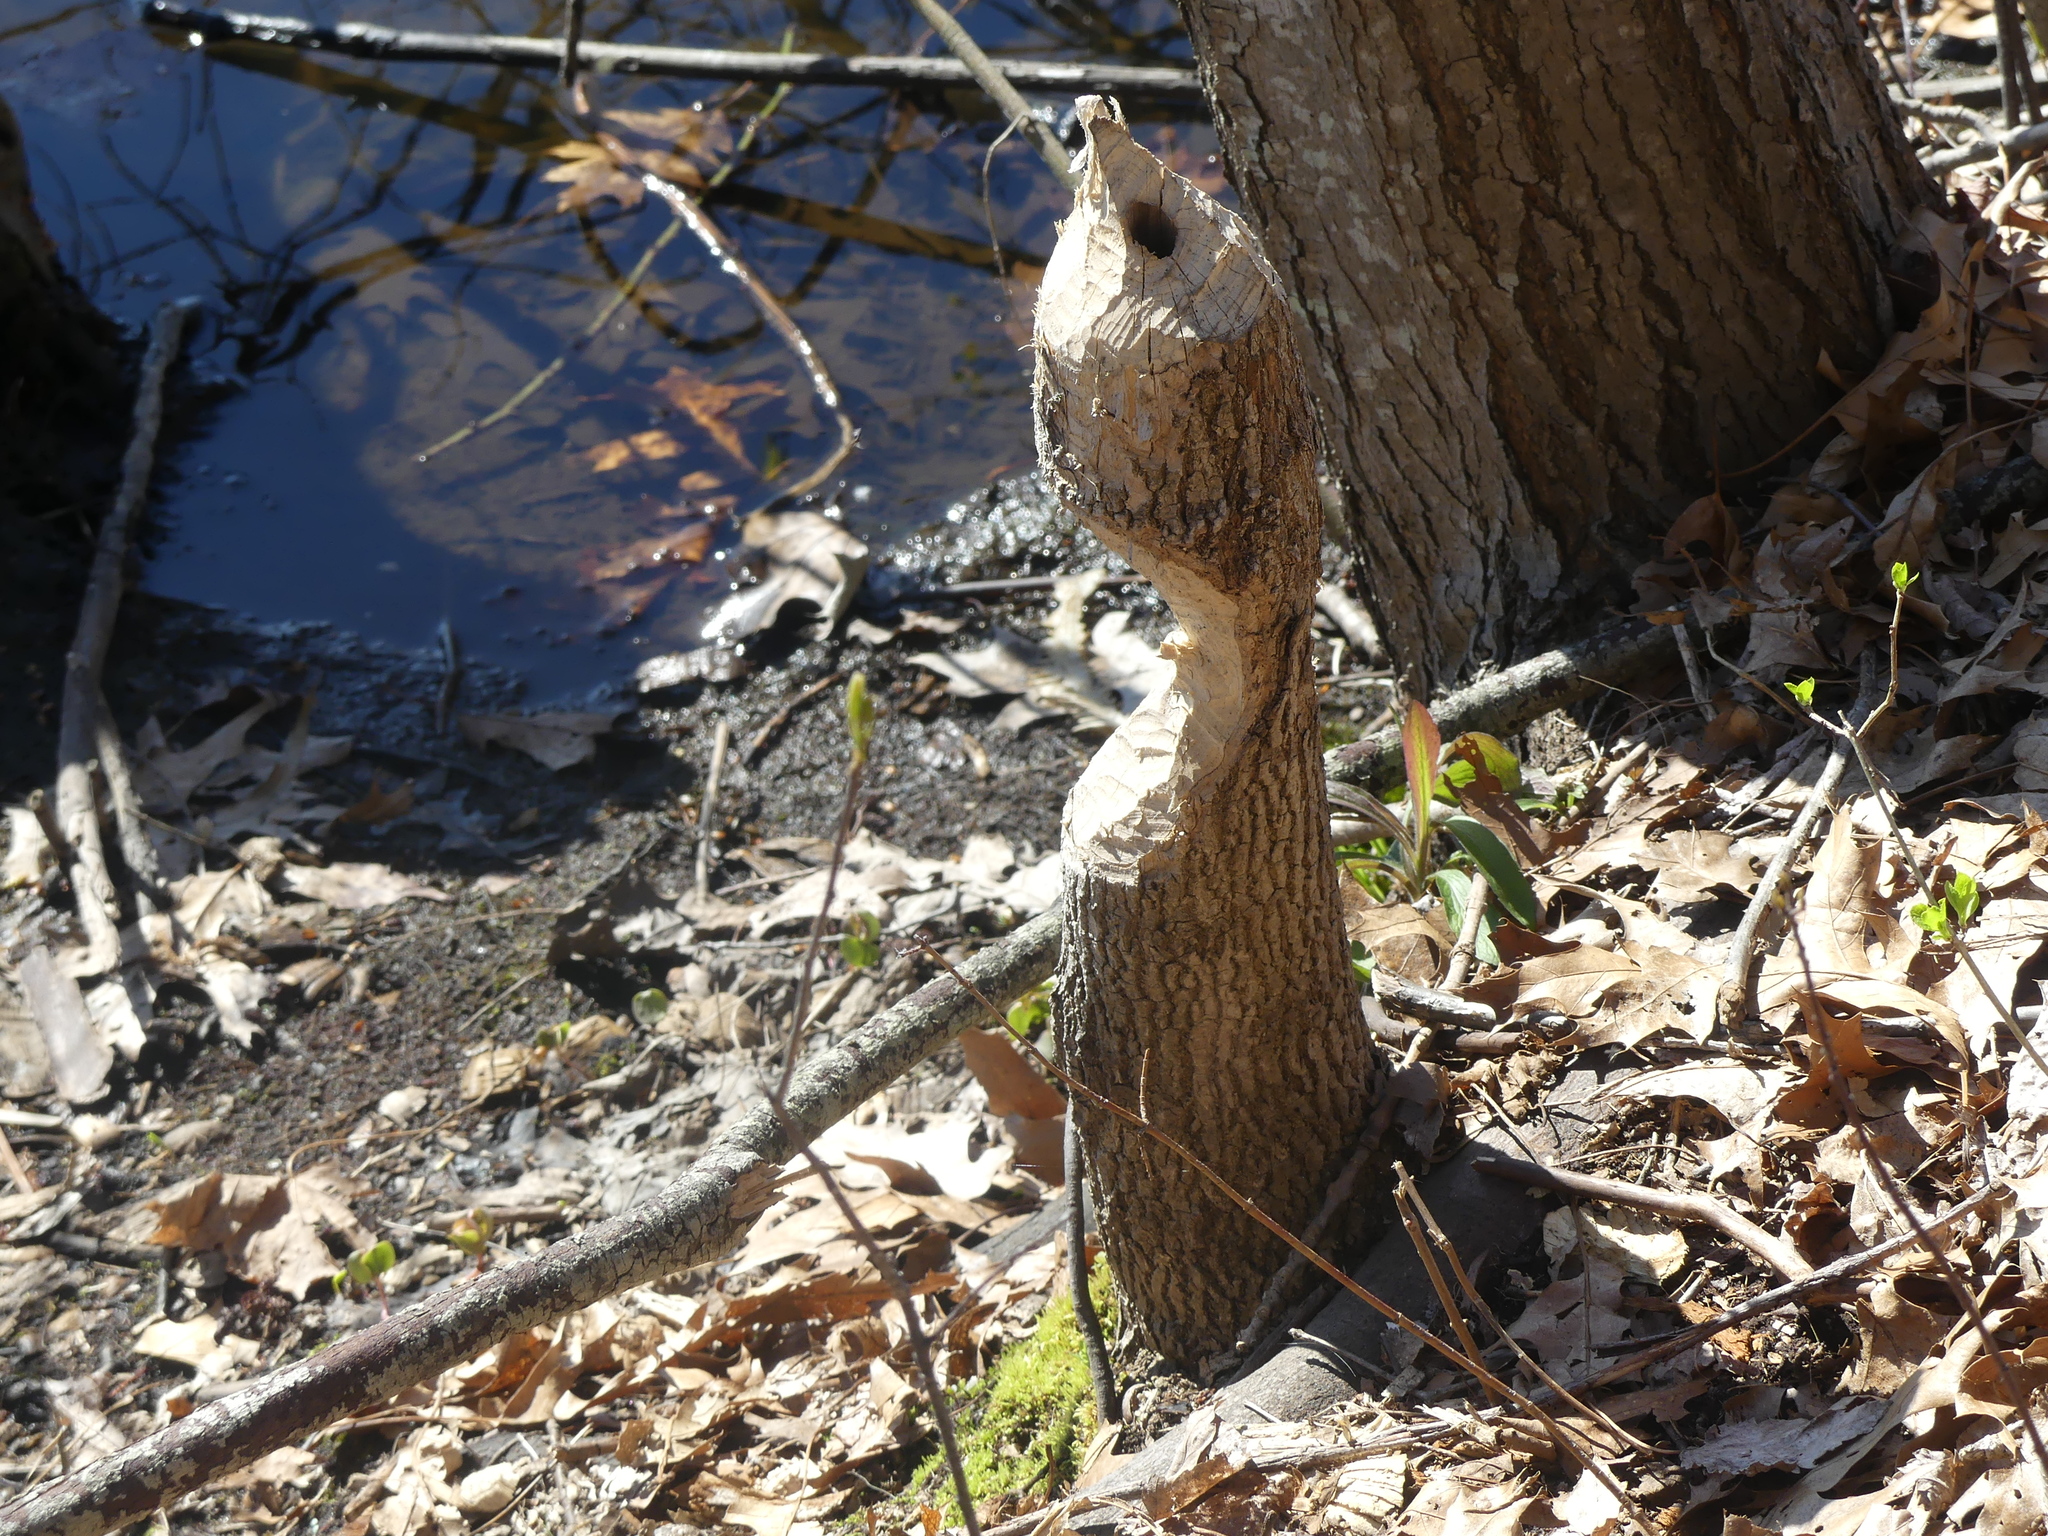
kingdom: Animalia
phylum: Chordata
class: Mammalia
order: Rodentia
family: Castoridae
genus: Castor
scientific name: Castor canadensis
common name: American beaver
